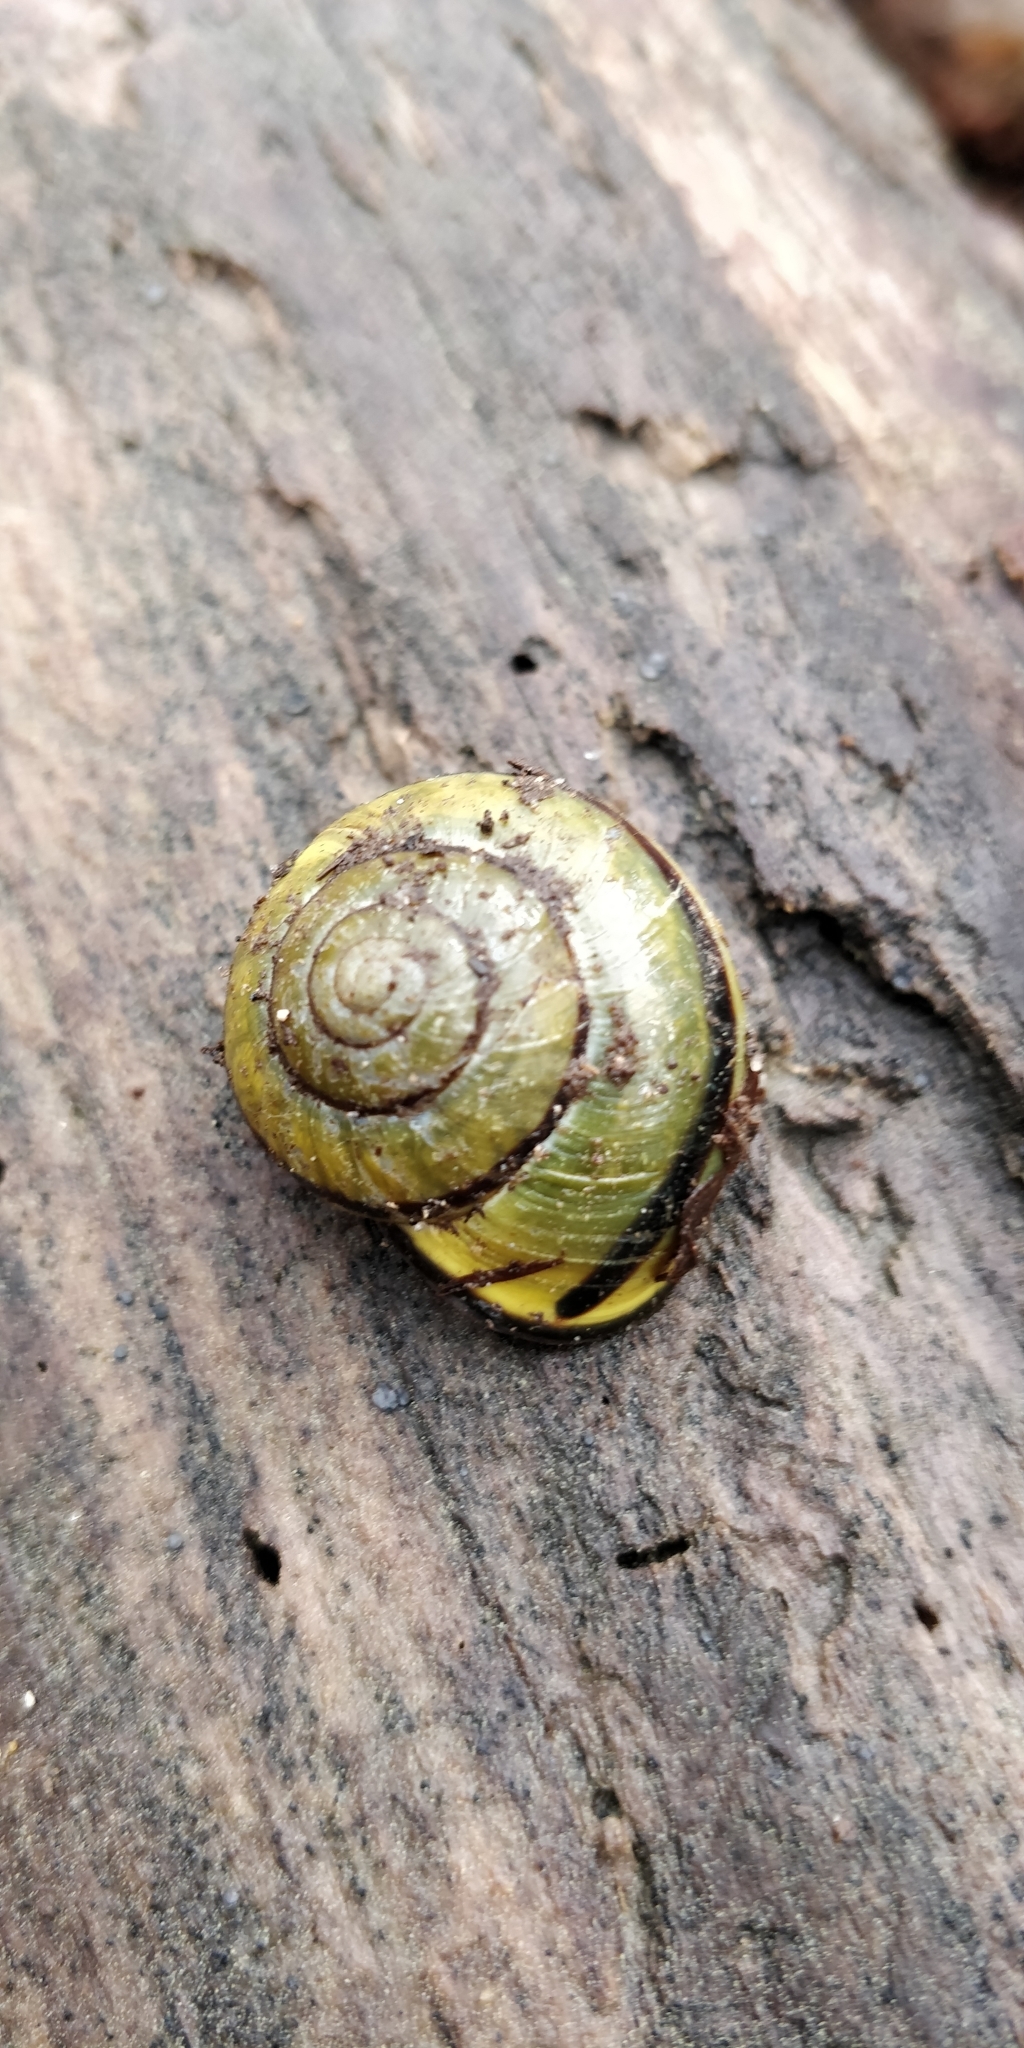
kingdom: Animalia
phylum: Mollusca
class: Gastropoda
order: Stylommatophora
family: Helicidae
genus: Cepaea
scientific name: Cepaea nemoralis
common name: Grovesnail
